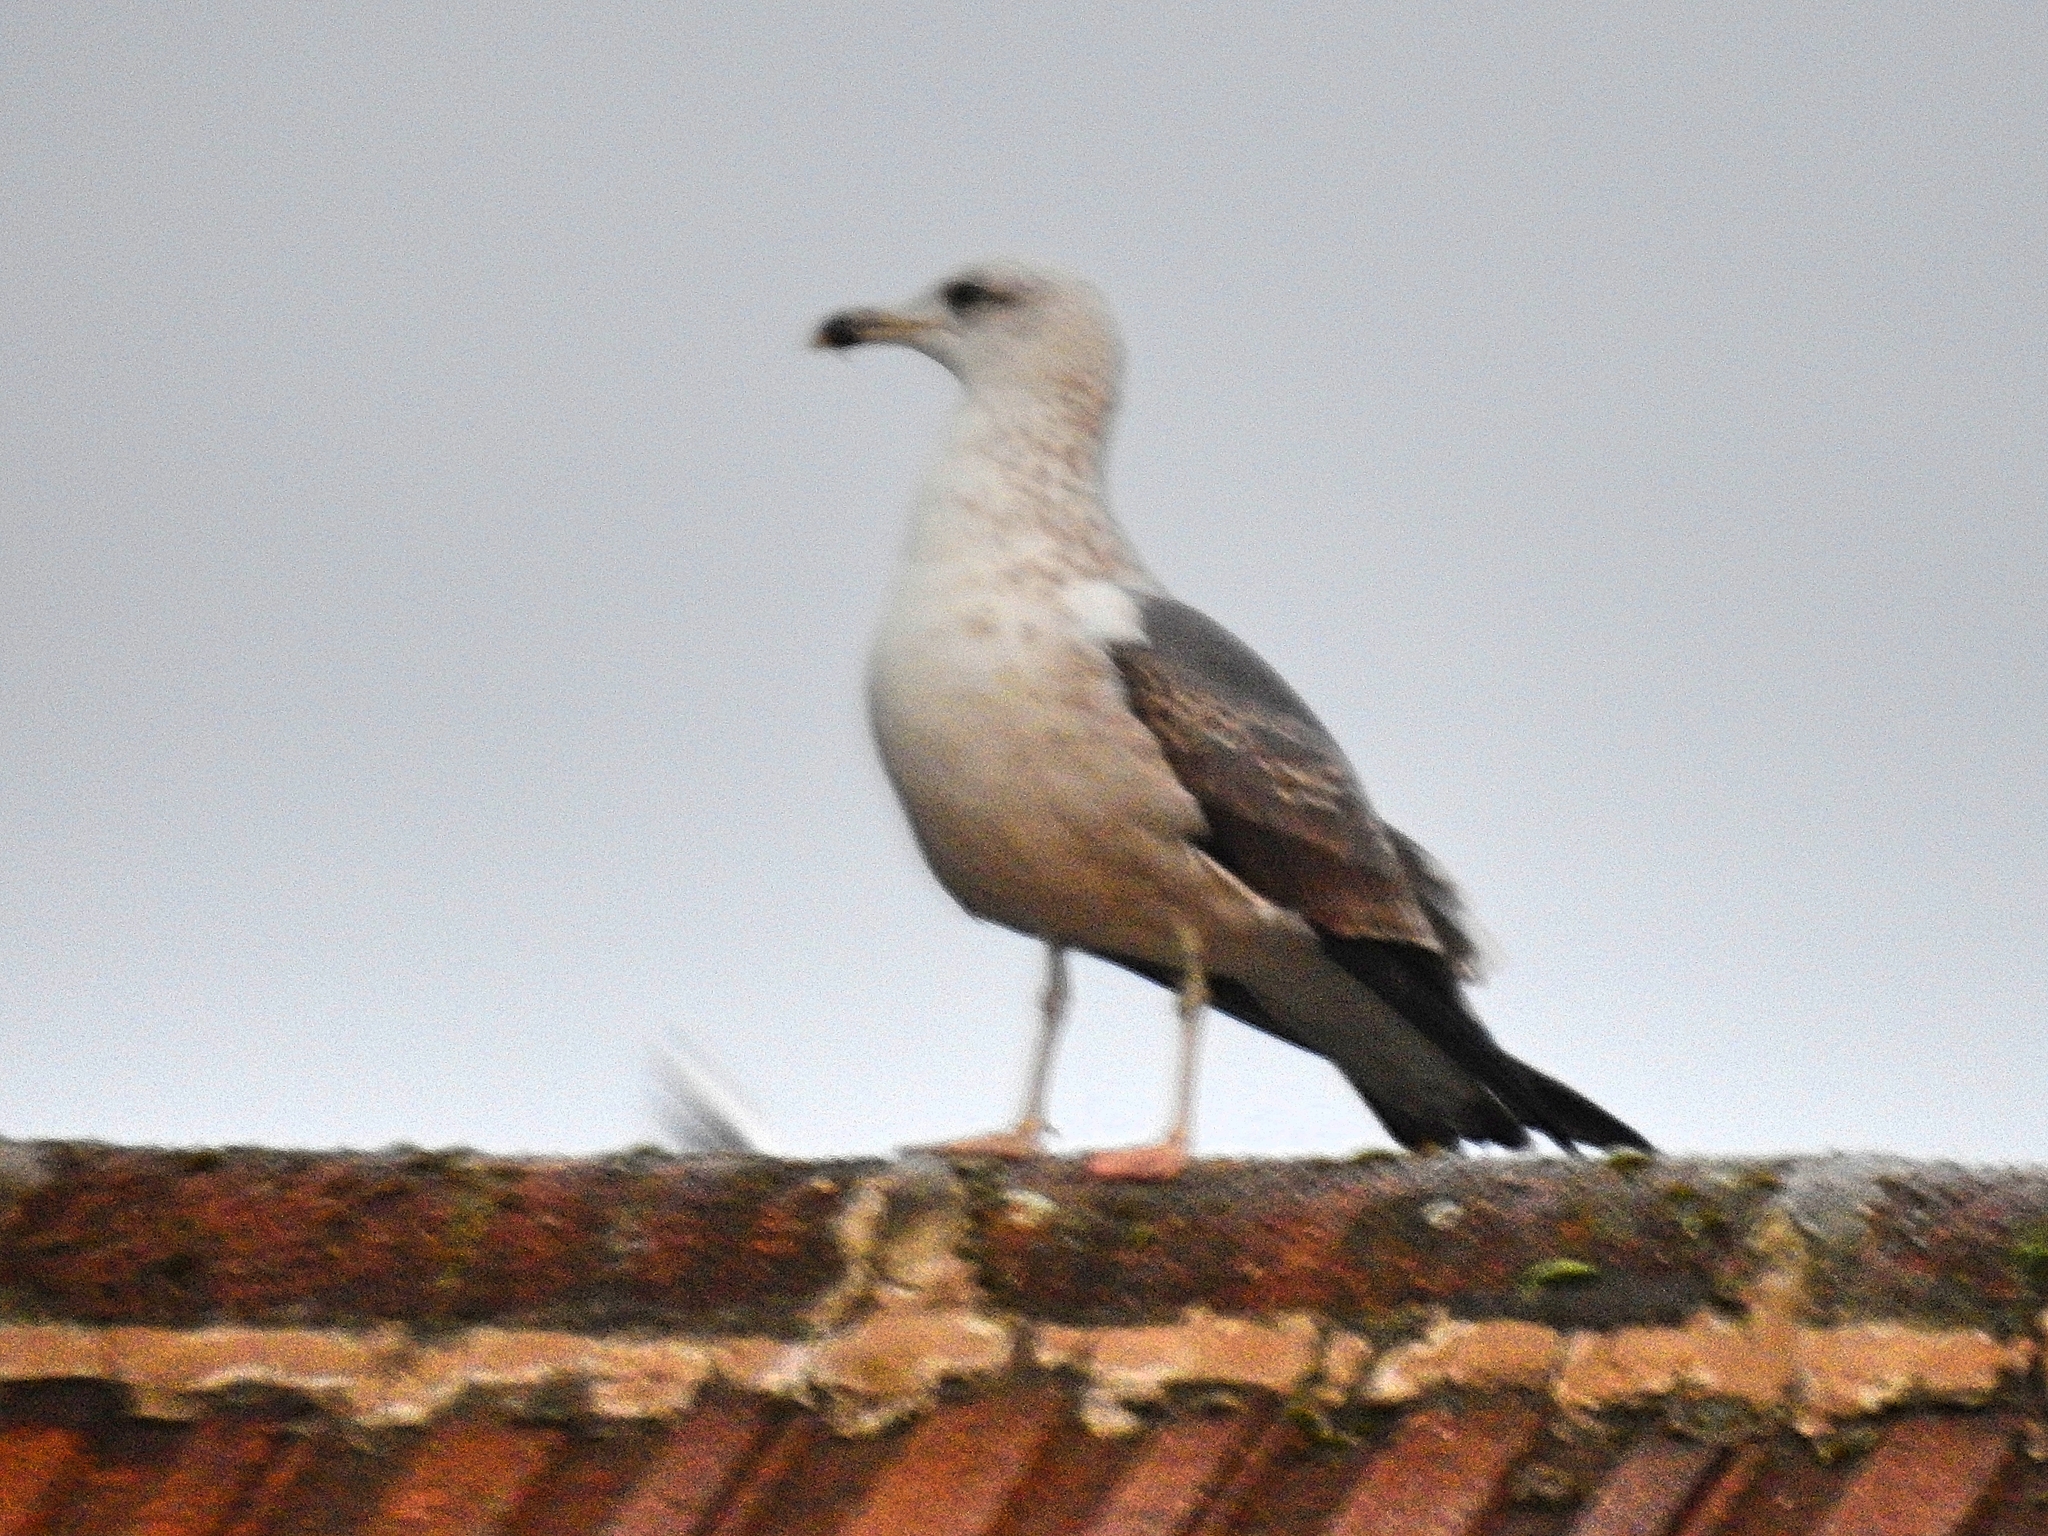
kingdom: Animalia
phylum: Chordata
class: Aves
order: Charadriiformes
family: Laridae
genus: Larus
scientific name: Larus fuscus
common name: Lesser black-backed gull
